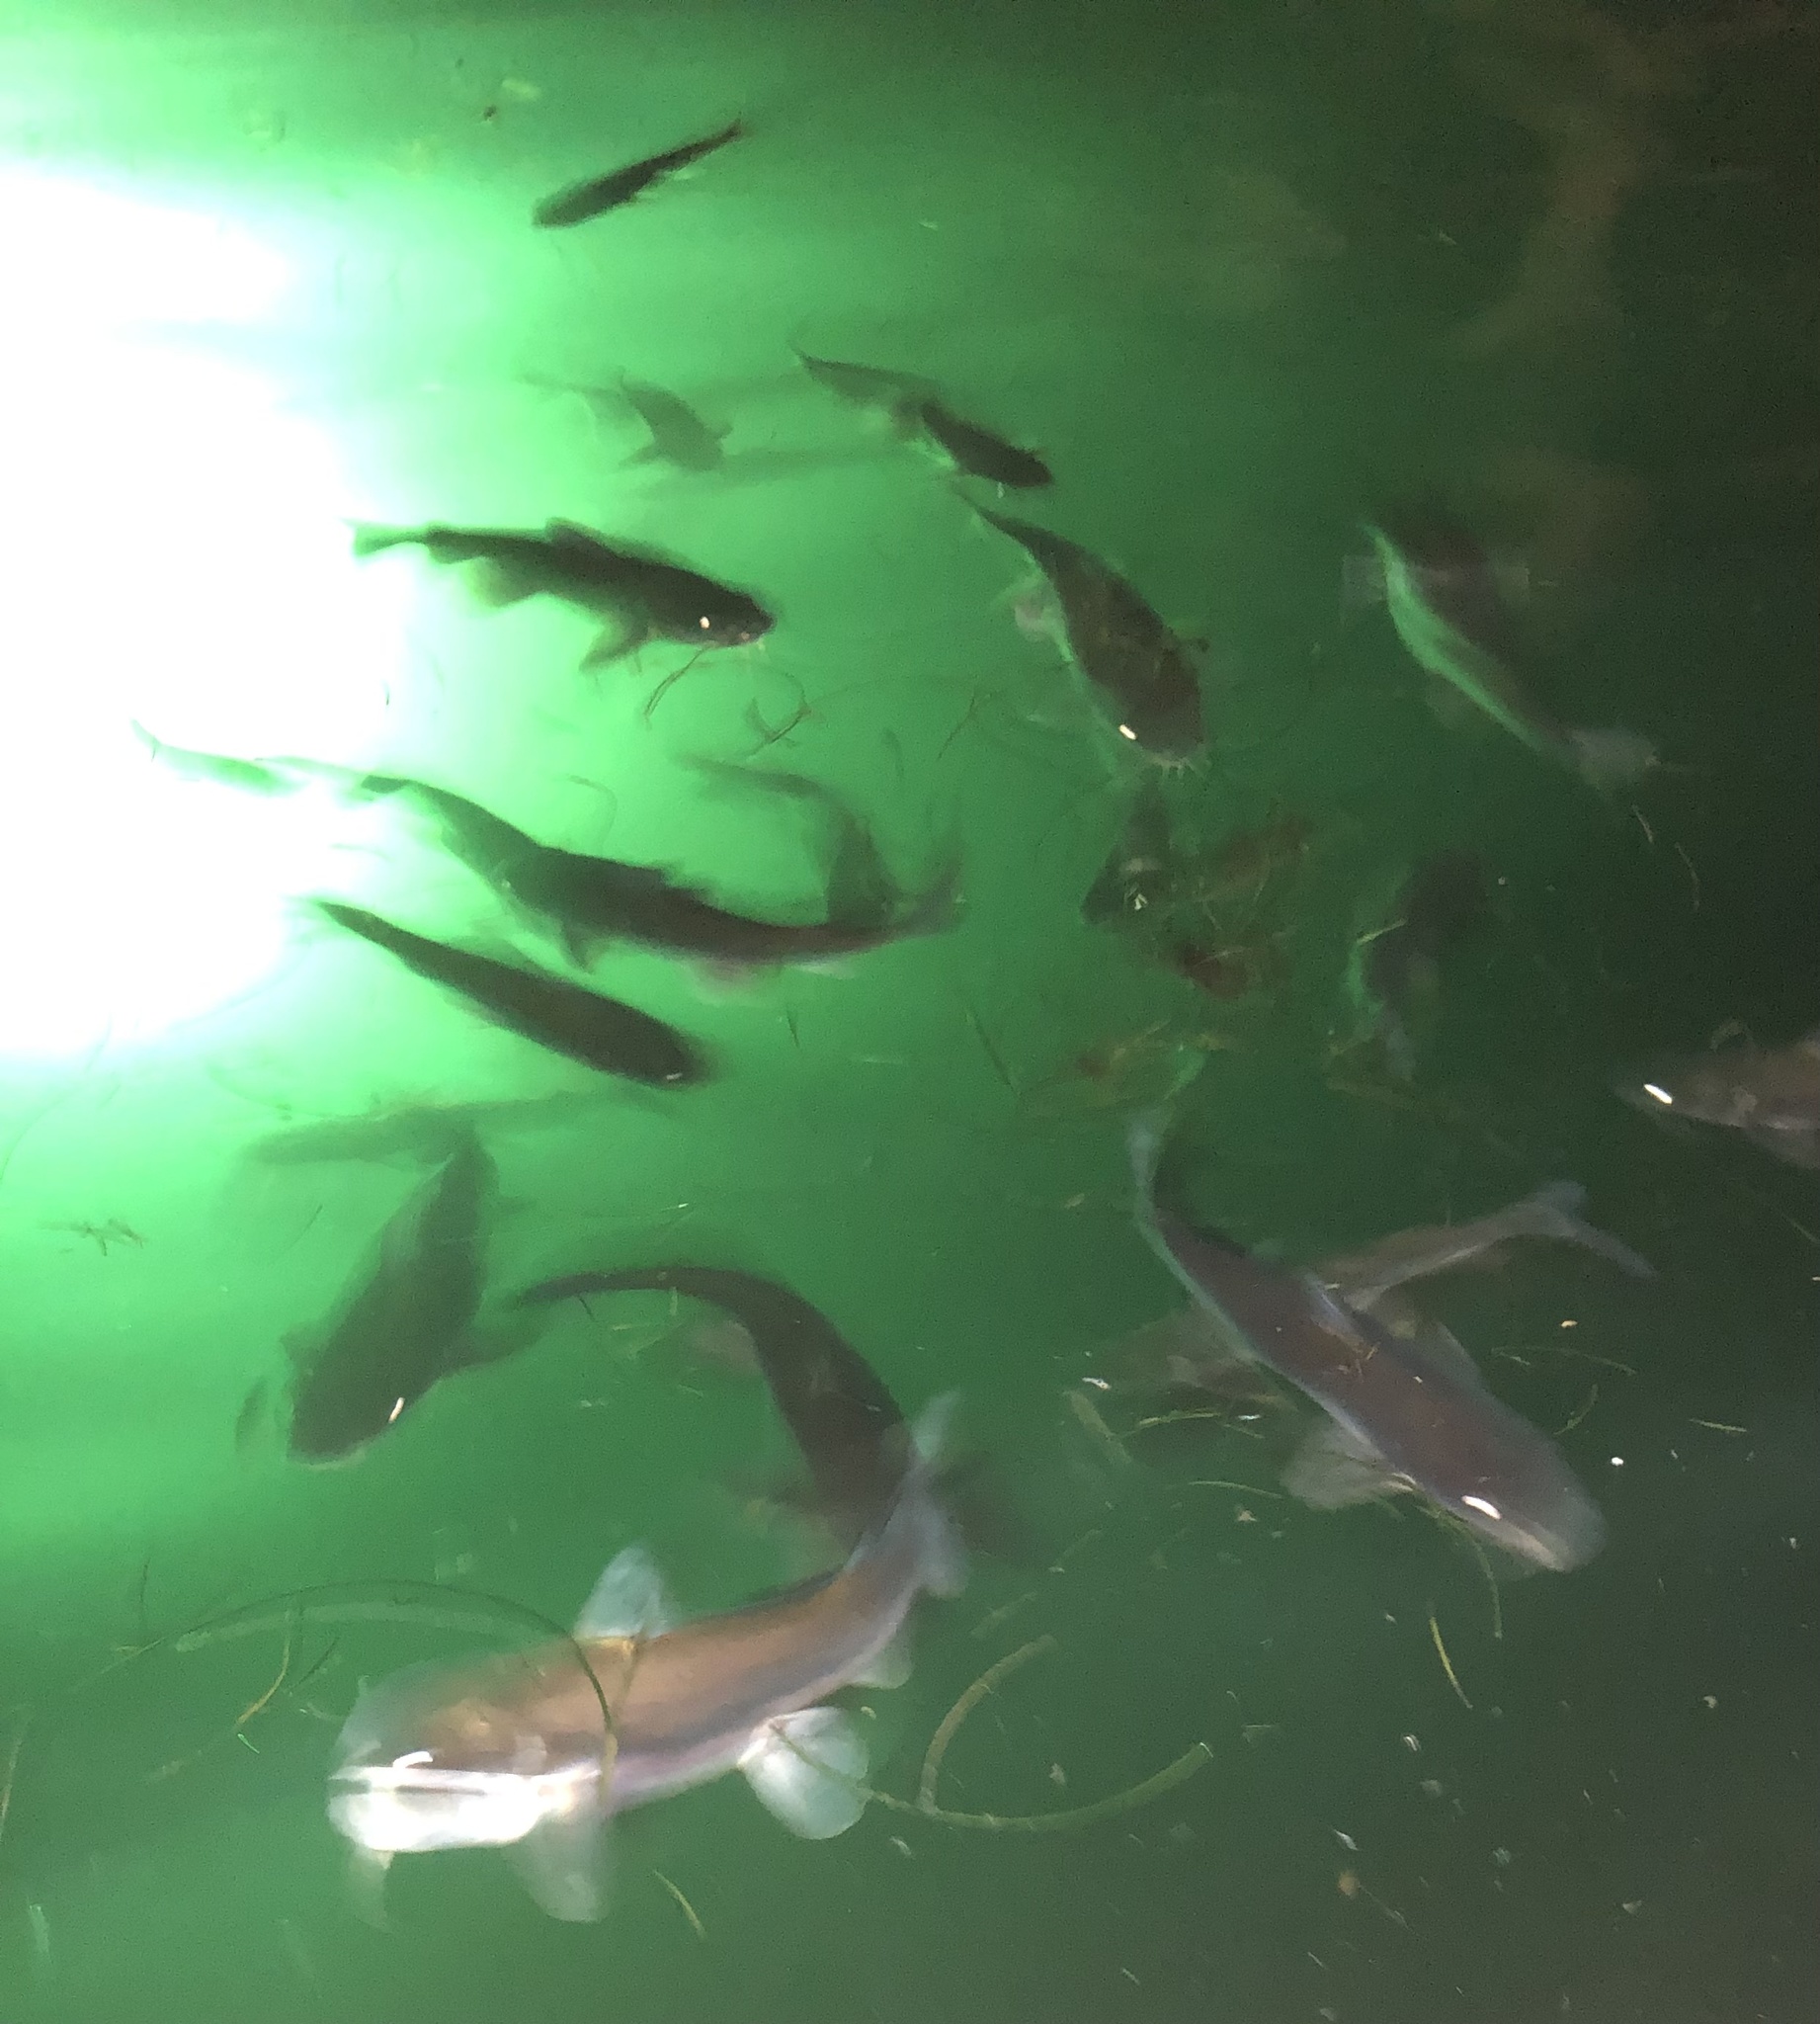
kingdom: Animalia
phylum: Chordata
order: Siluriformes
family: Ariidae
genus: Ariopsis
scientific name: Ariopsis felis
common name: Hardhead catfish
